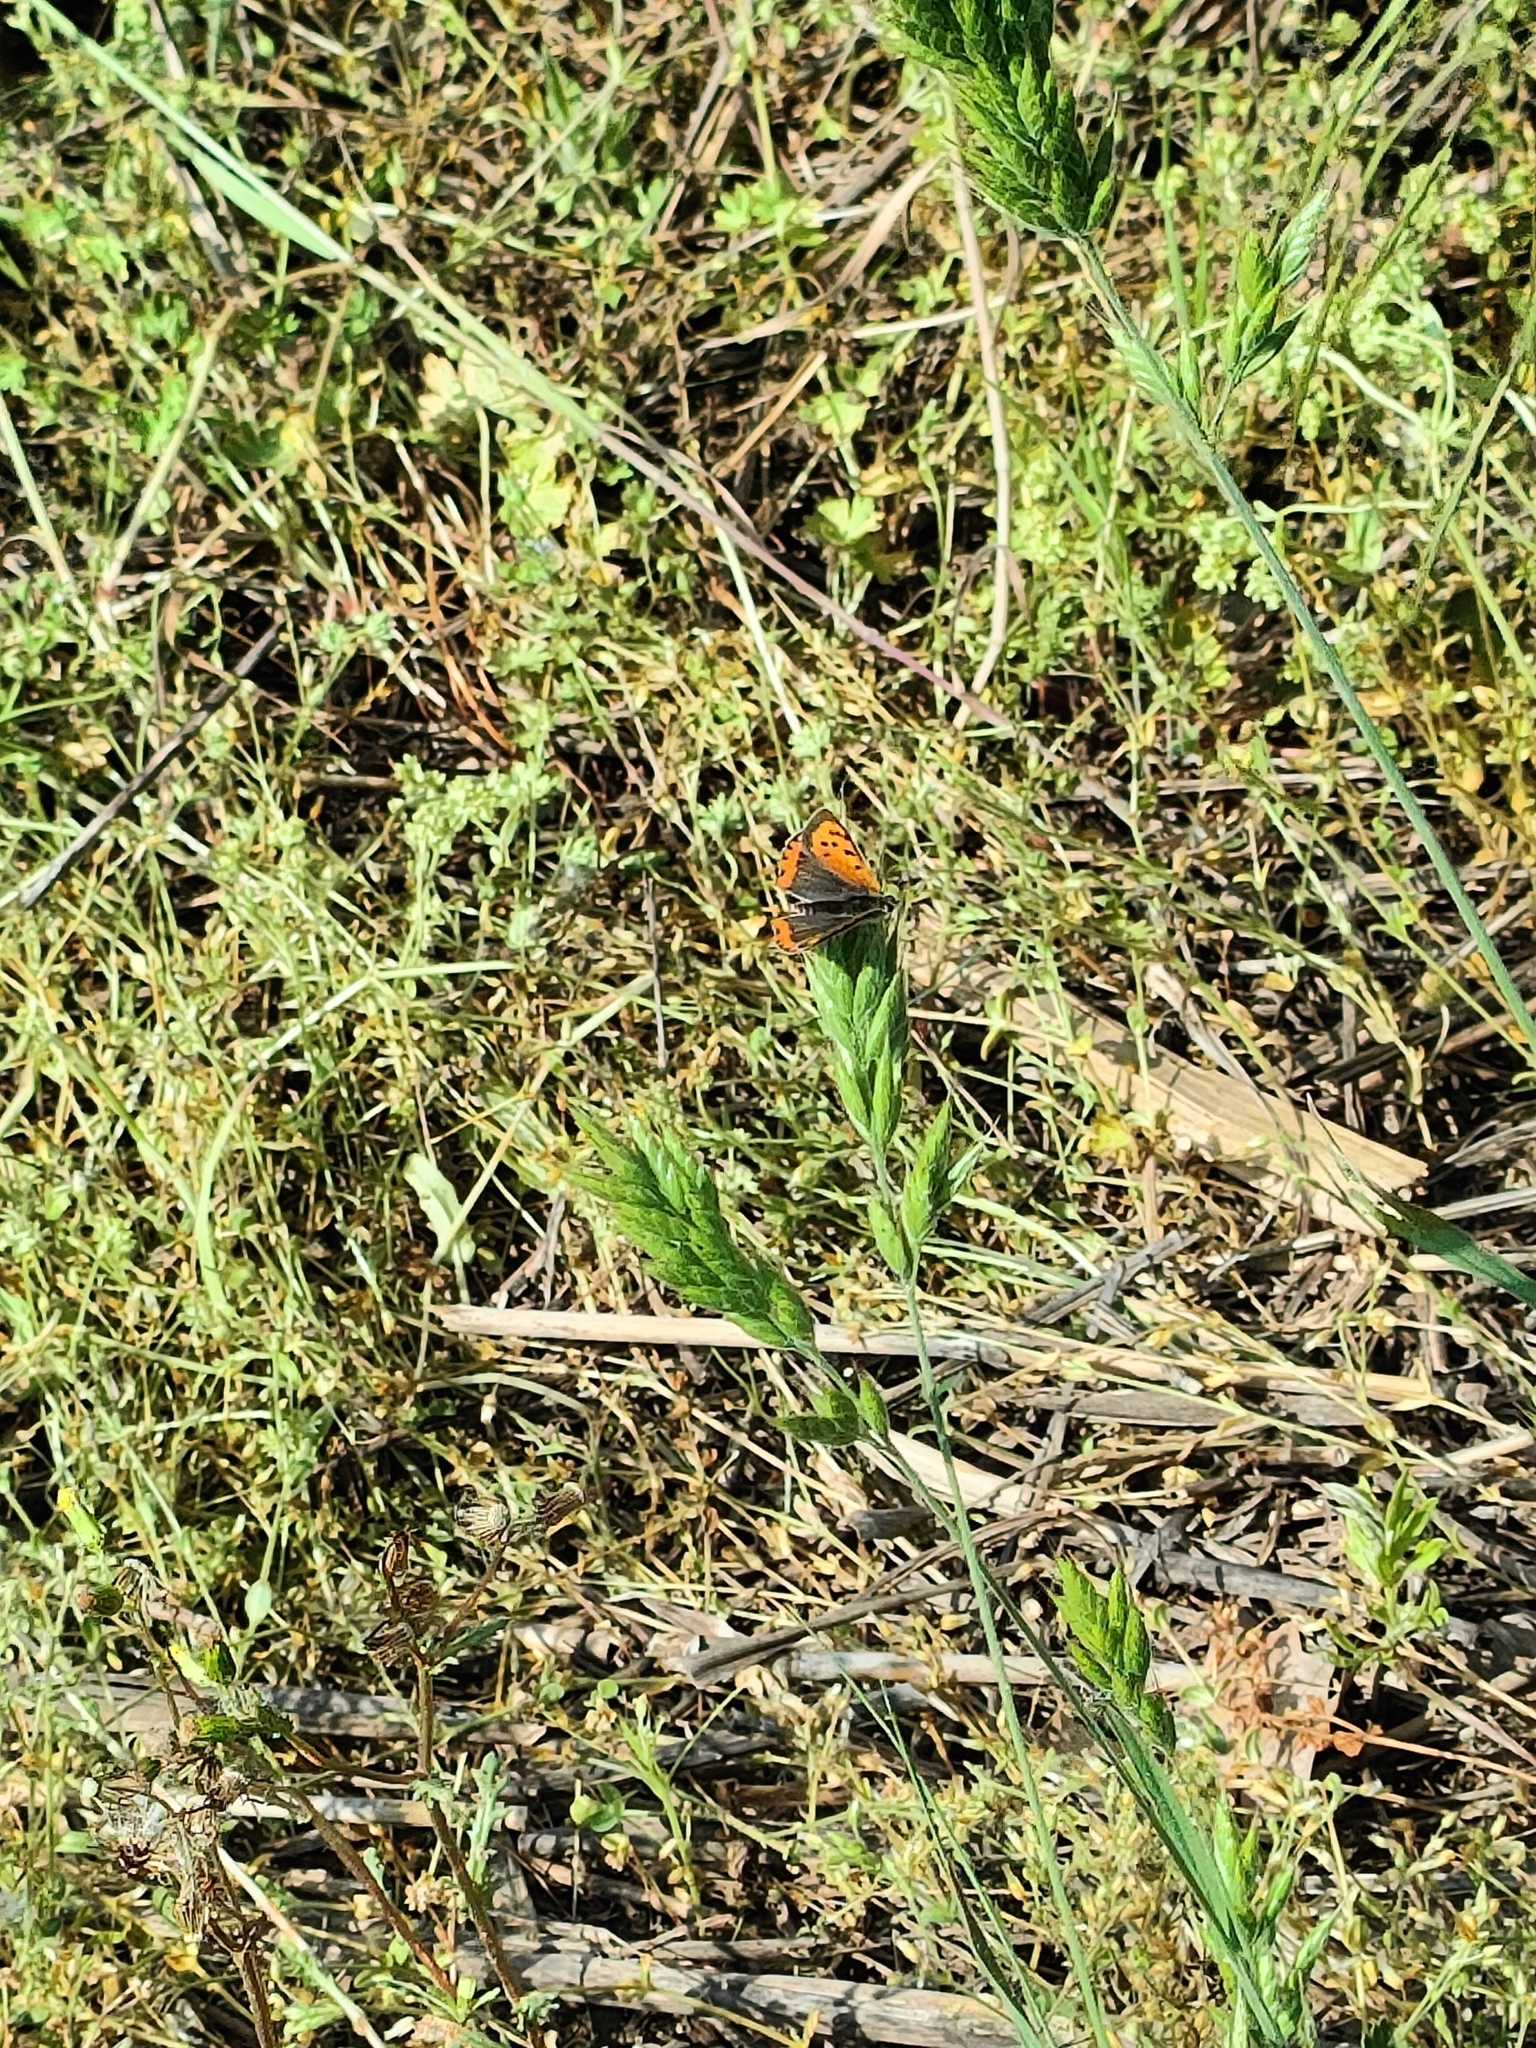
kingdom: Animalia
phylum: Arthropoda
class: Insecta
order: Lepidoptera
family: Lycaenidae
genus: Lycaena
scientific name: Lycaena phlaeas
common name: Small copper
